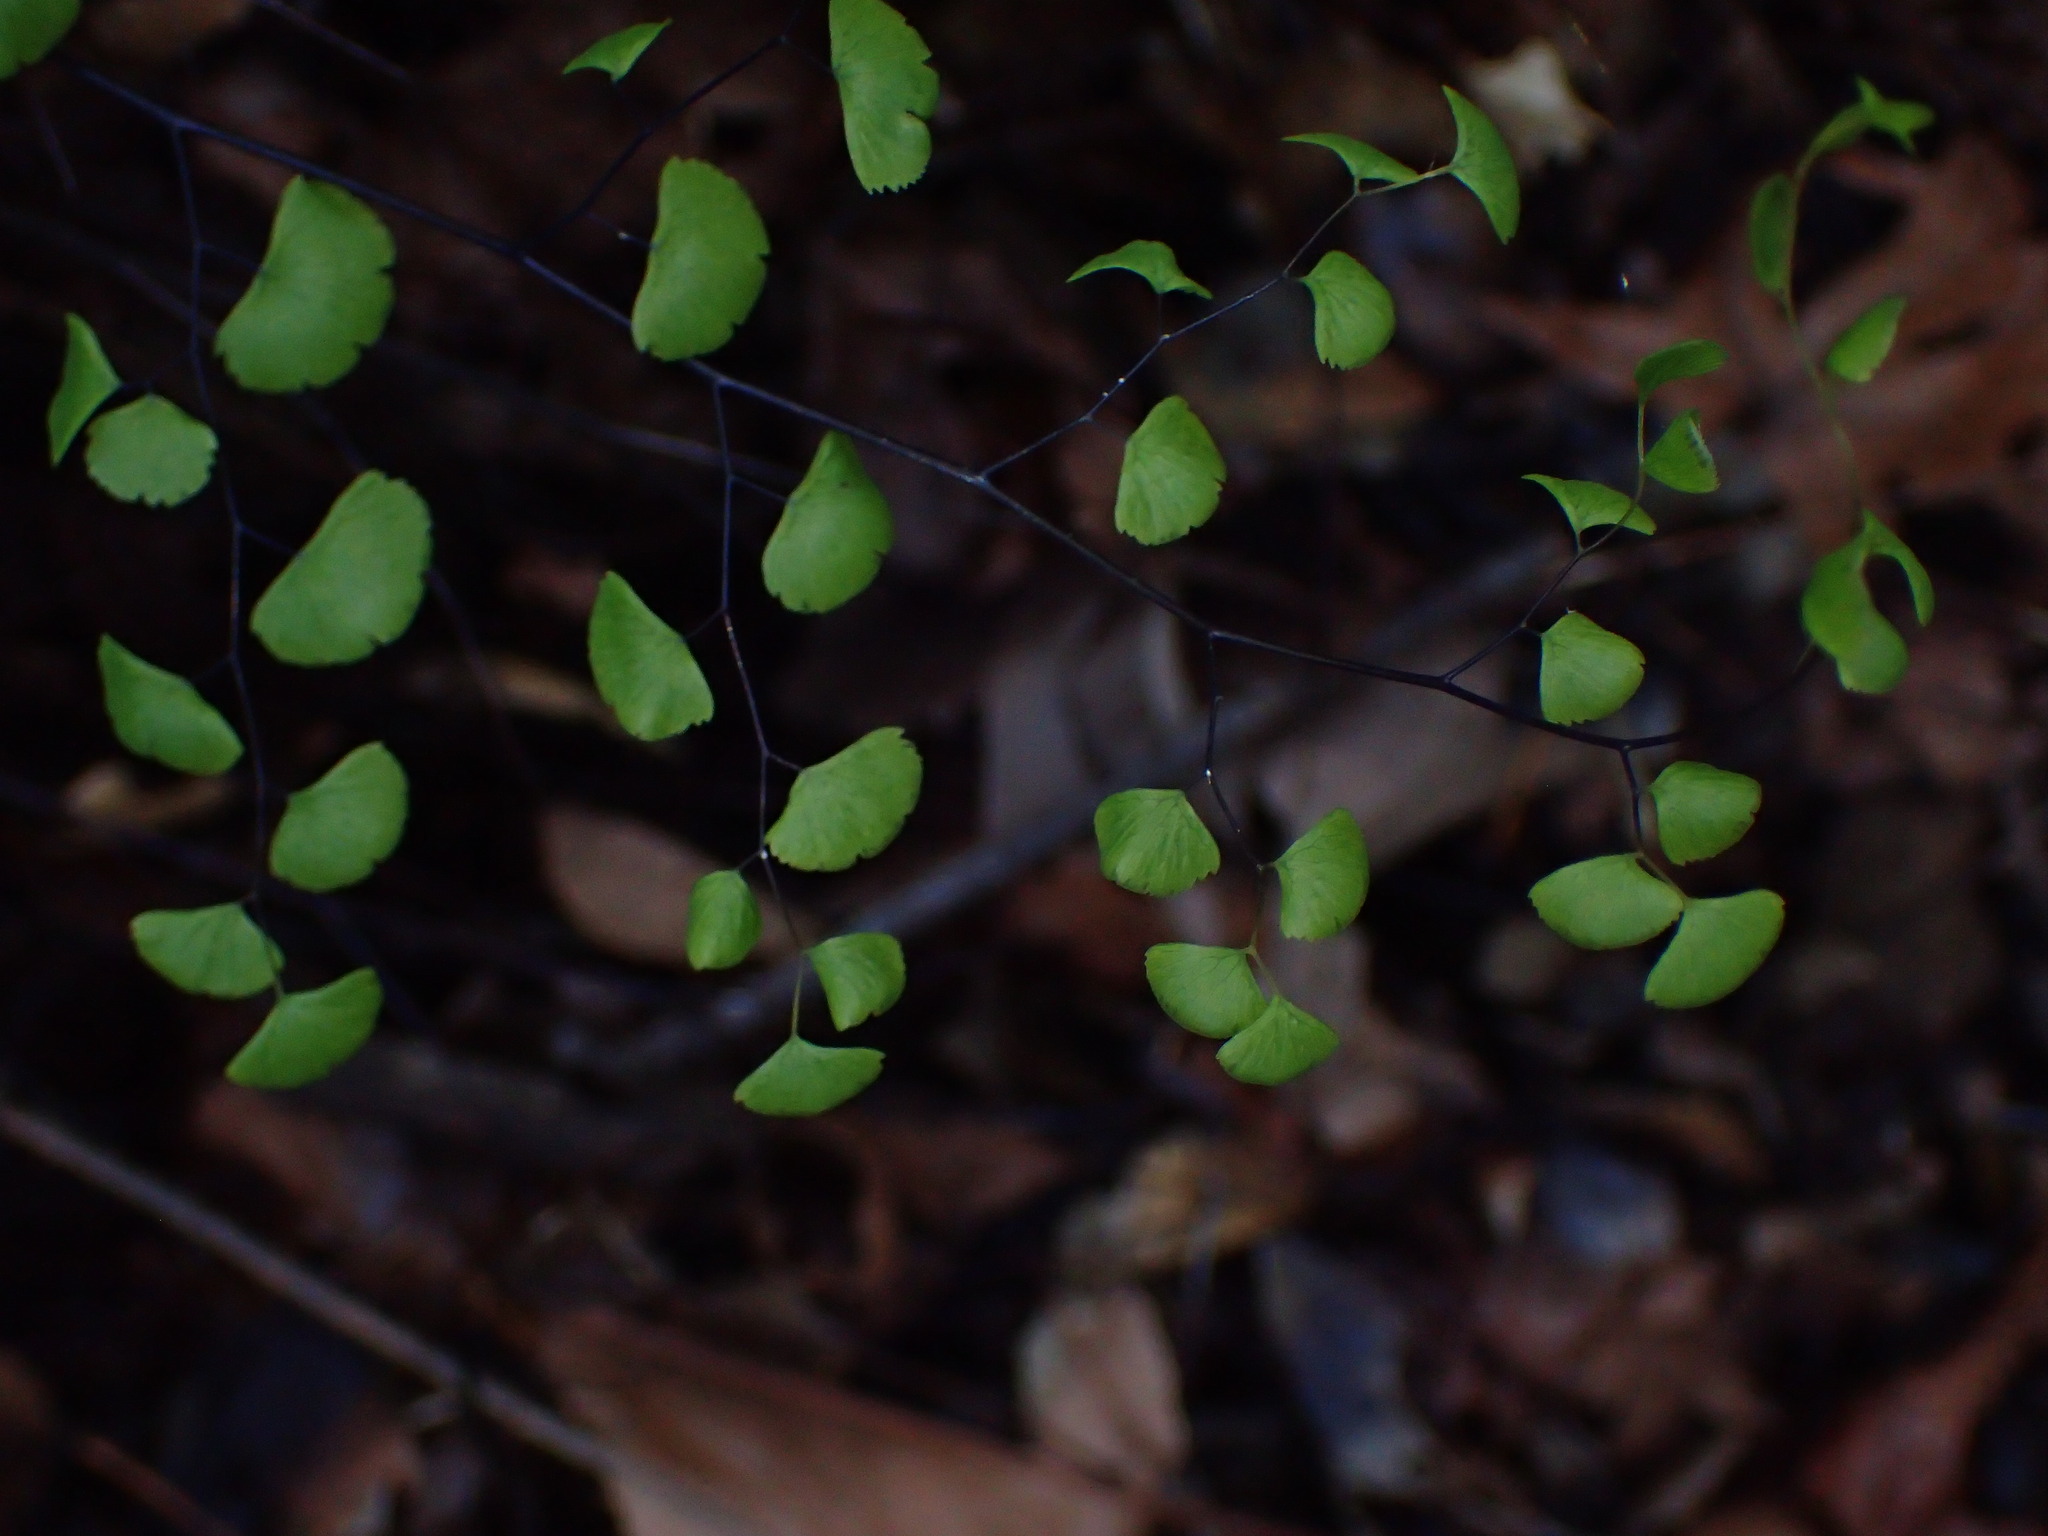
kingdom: Plantae
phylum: Tracheophyta
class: Polypodiopsida
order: Polypodiales
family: Pteridaceae
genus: Adiantum
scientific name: Adiantum jordanii
